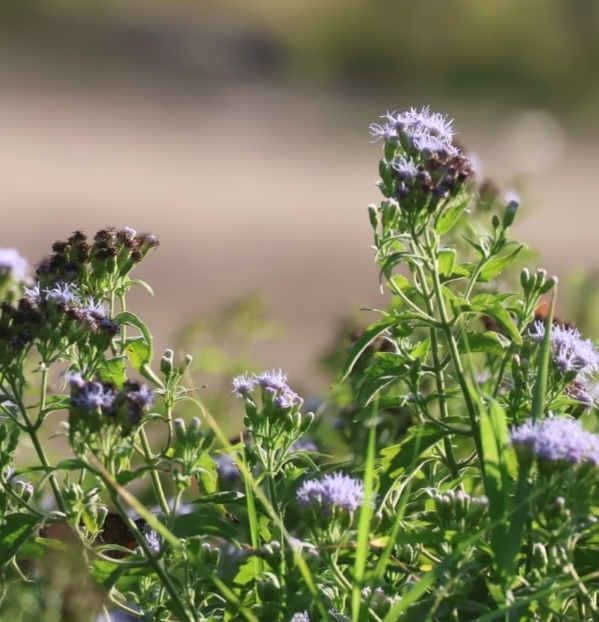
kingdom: Plantae
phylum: Tracheophyta
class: Magnoliopsida
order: Asterales
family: Asteraceae
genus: Chromolaena
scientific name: Chromolaena odorata
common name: Siamweed
